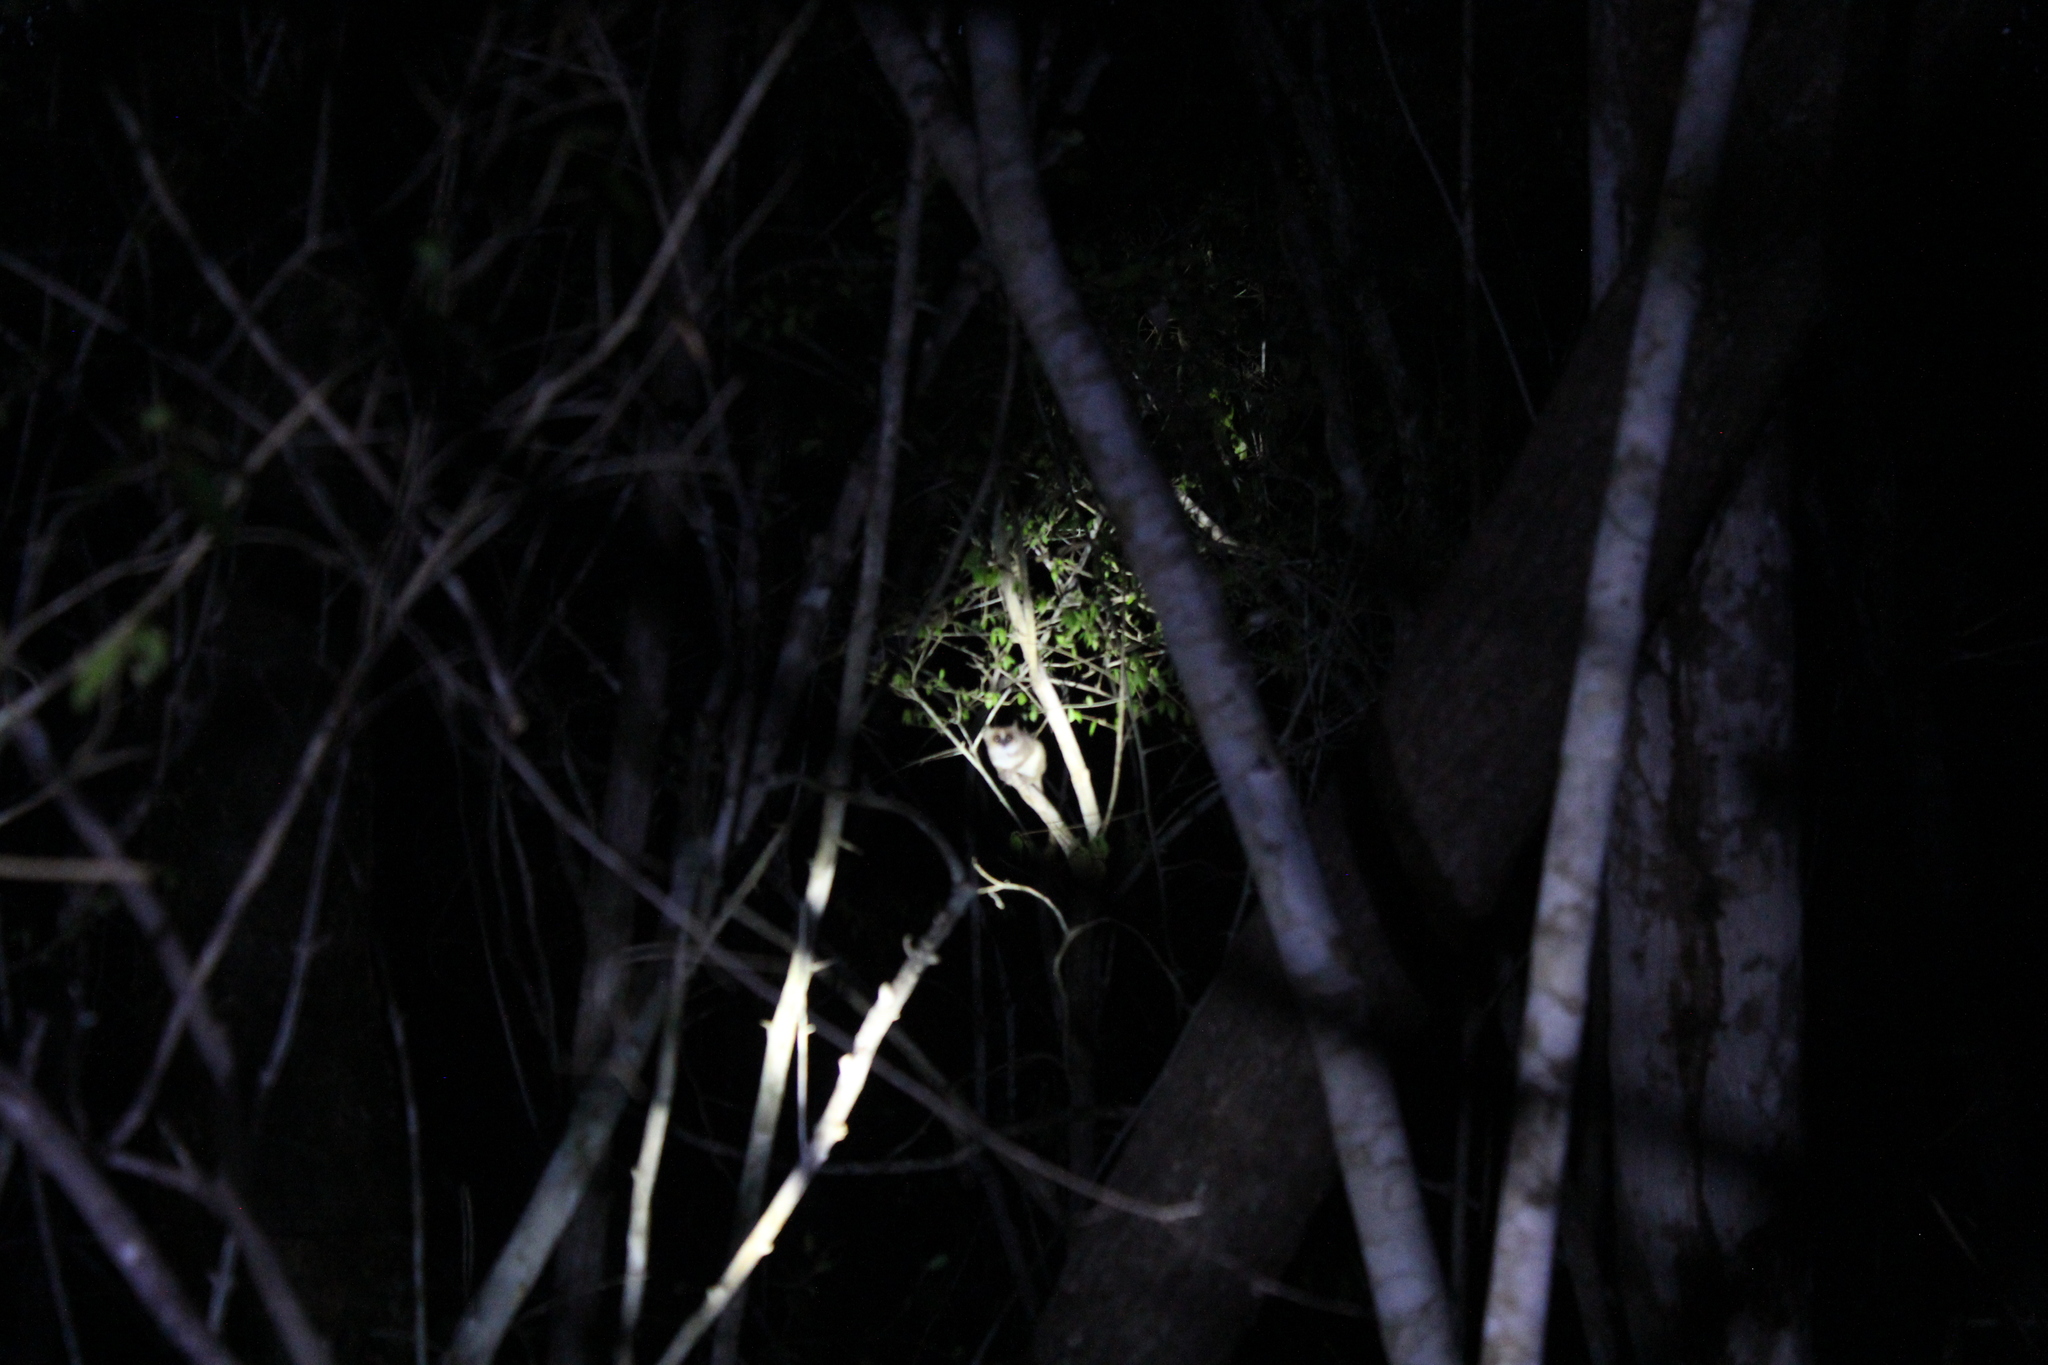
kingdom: Animalia
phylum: Chordata
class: Mammalia
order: Primates
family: Cheirogaleidae
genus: Microcebus
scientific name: Microcebus murinus
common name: Gray mouse lemur
